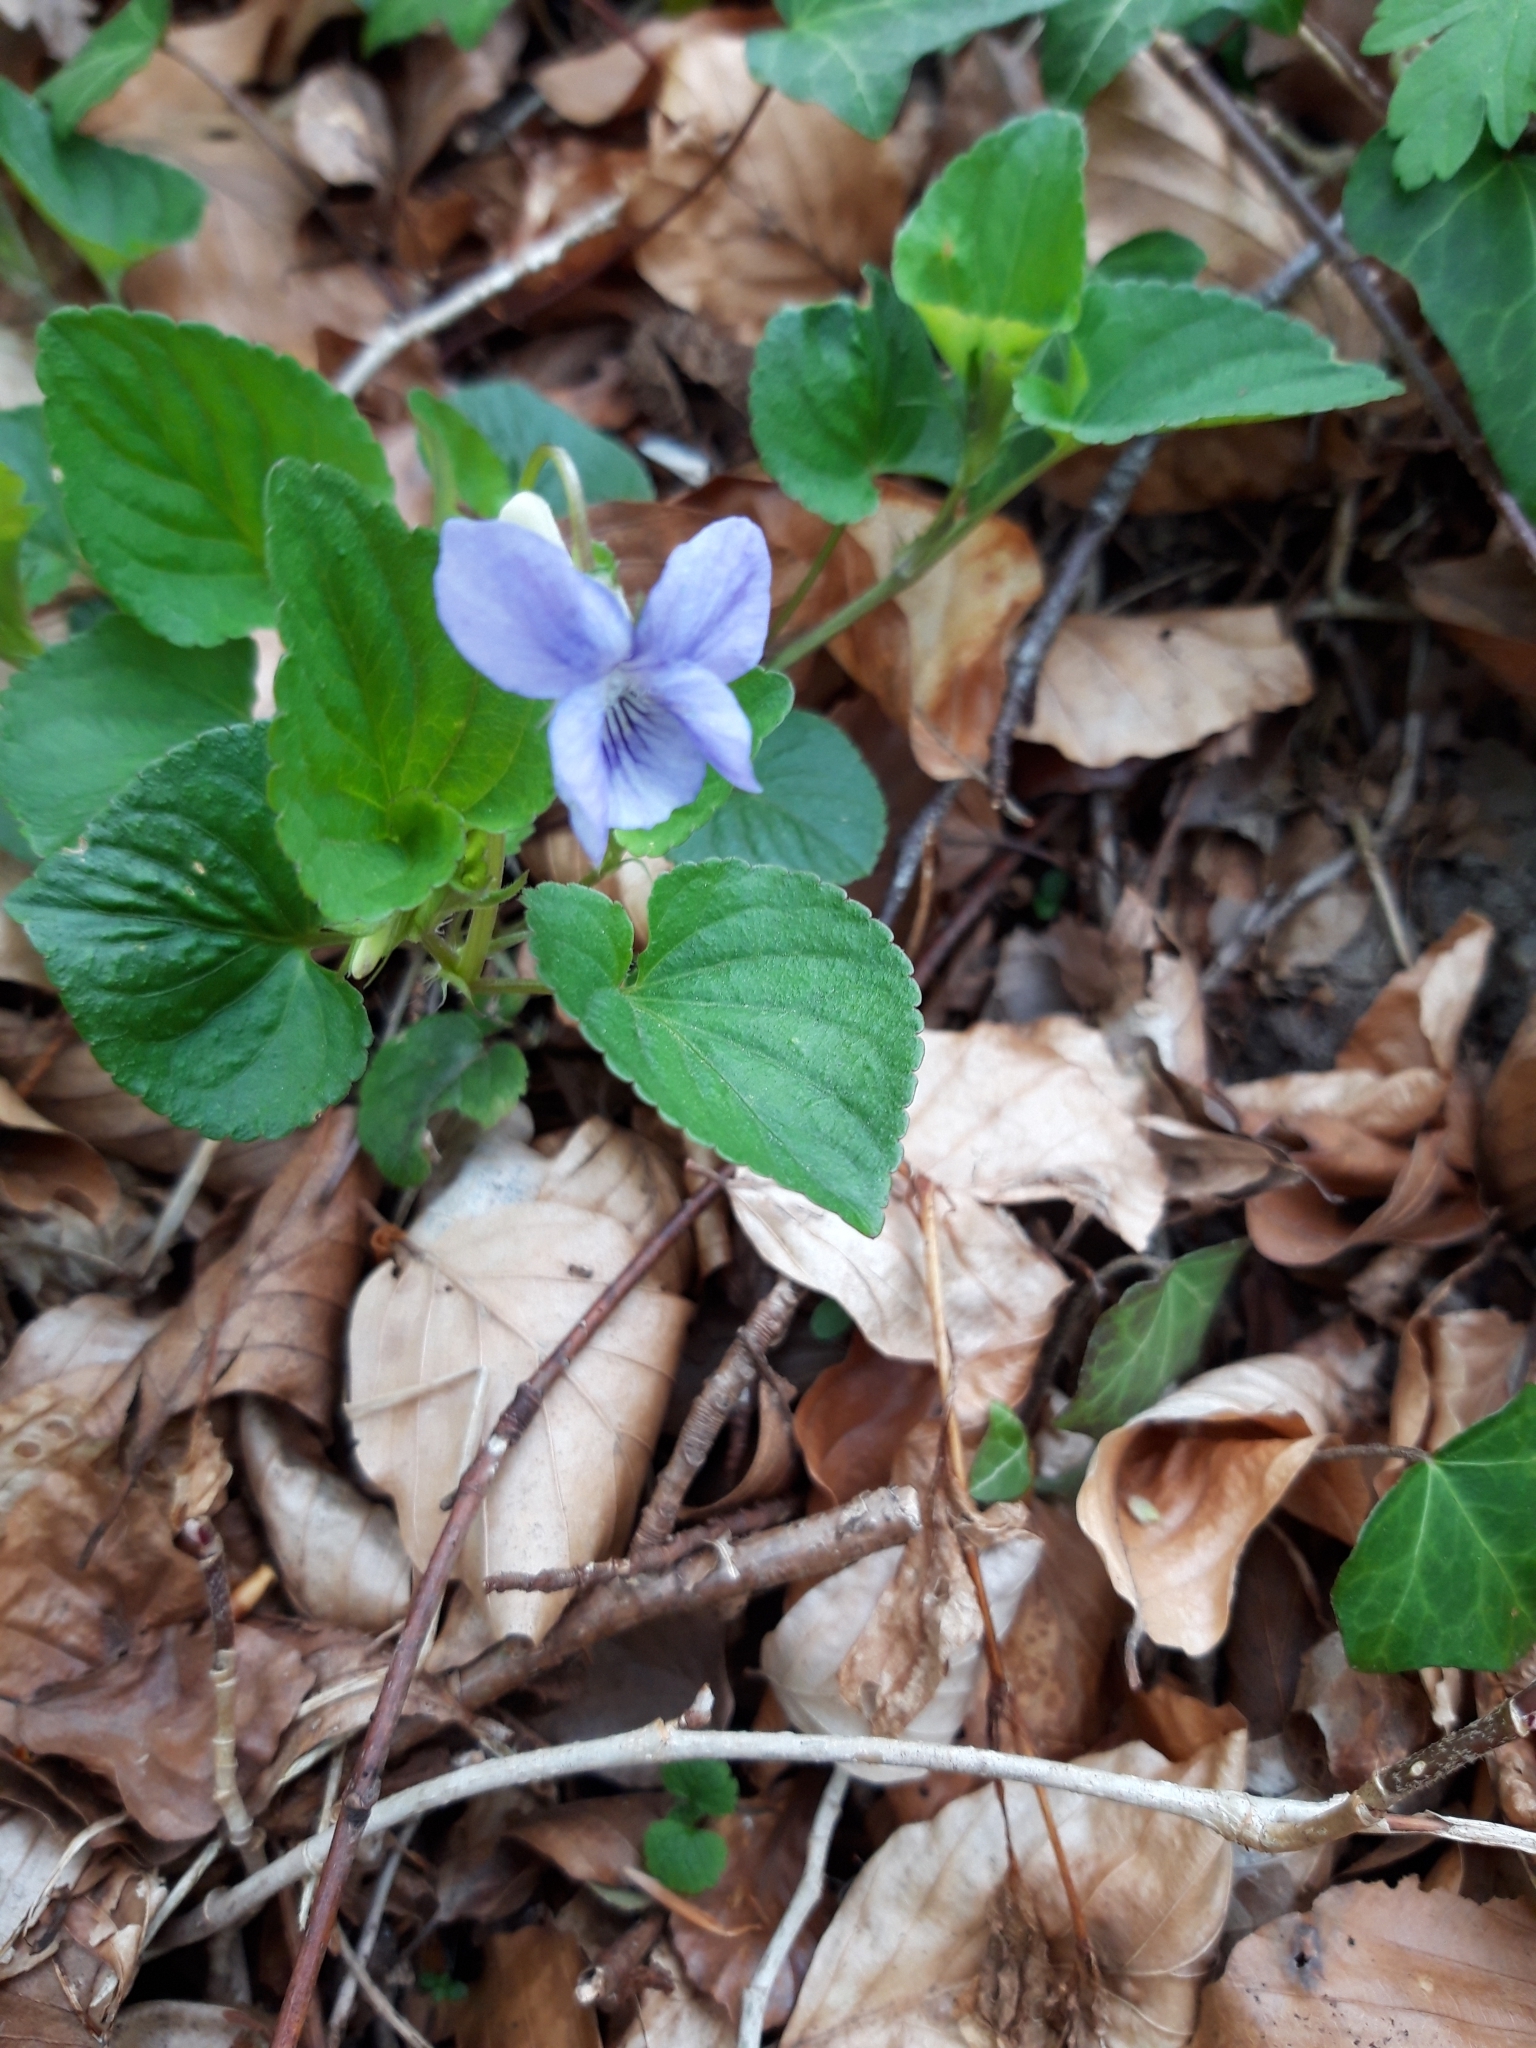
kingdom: Plantae
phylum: Tracheophyta
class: Magnoliopsida
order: Malpighiales
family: Violaceae
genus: Viola
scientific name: Viola riviniana
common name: Common dog-violet
